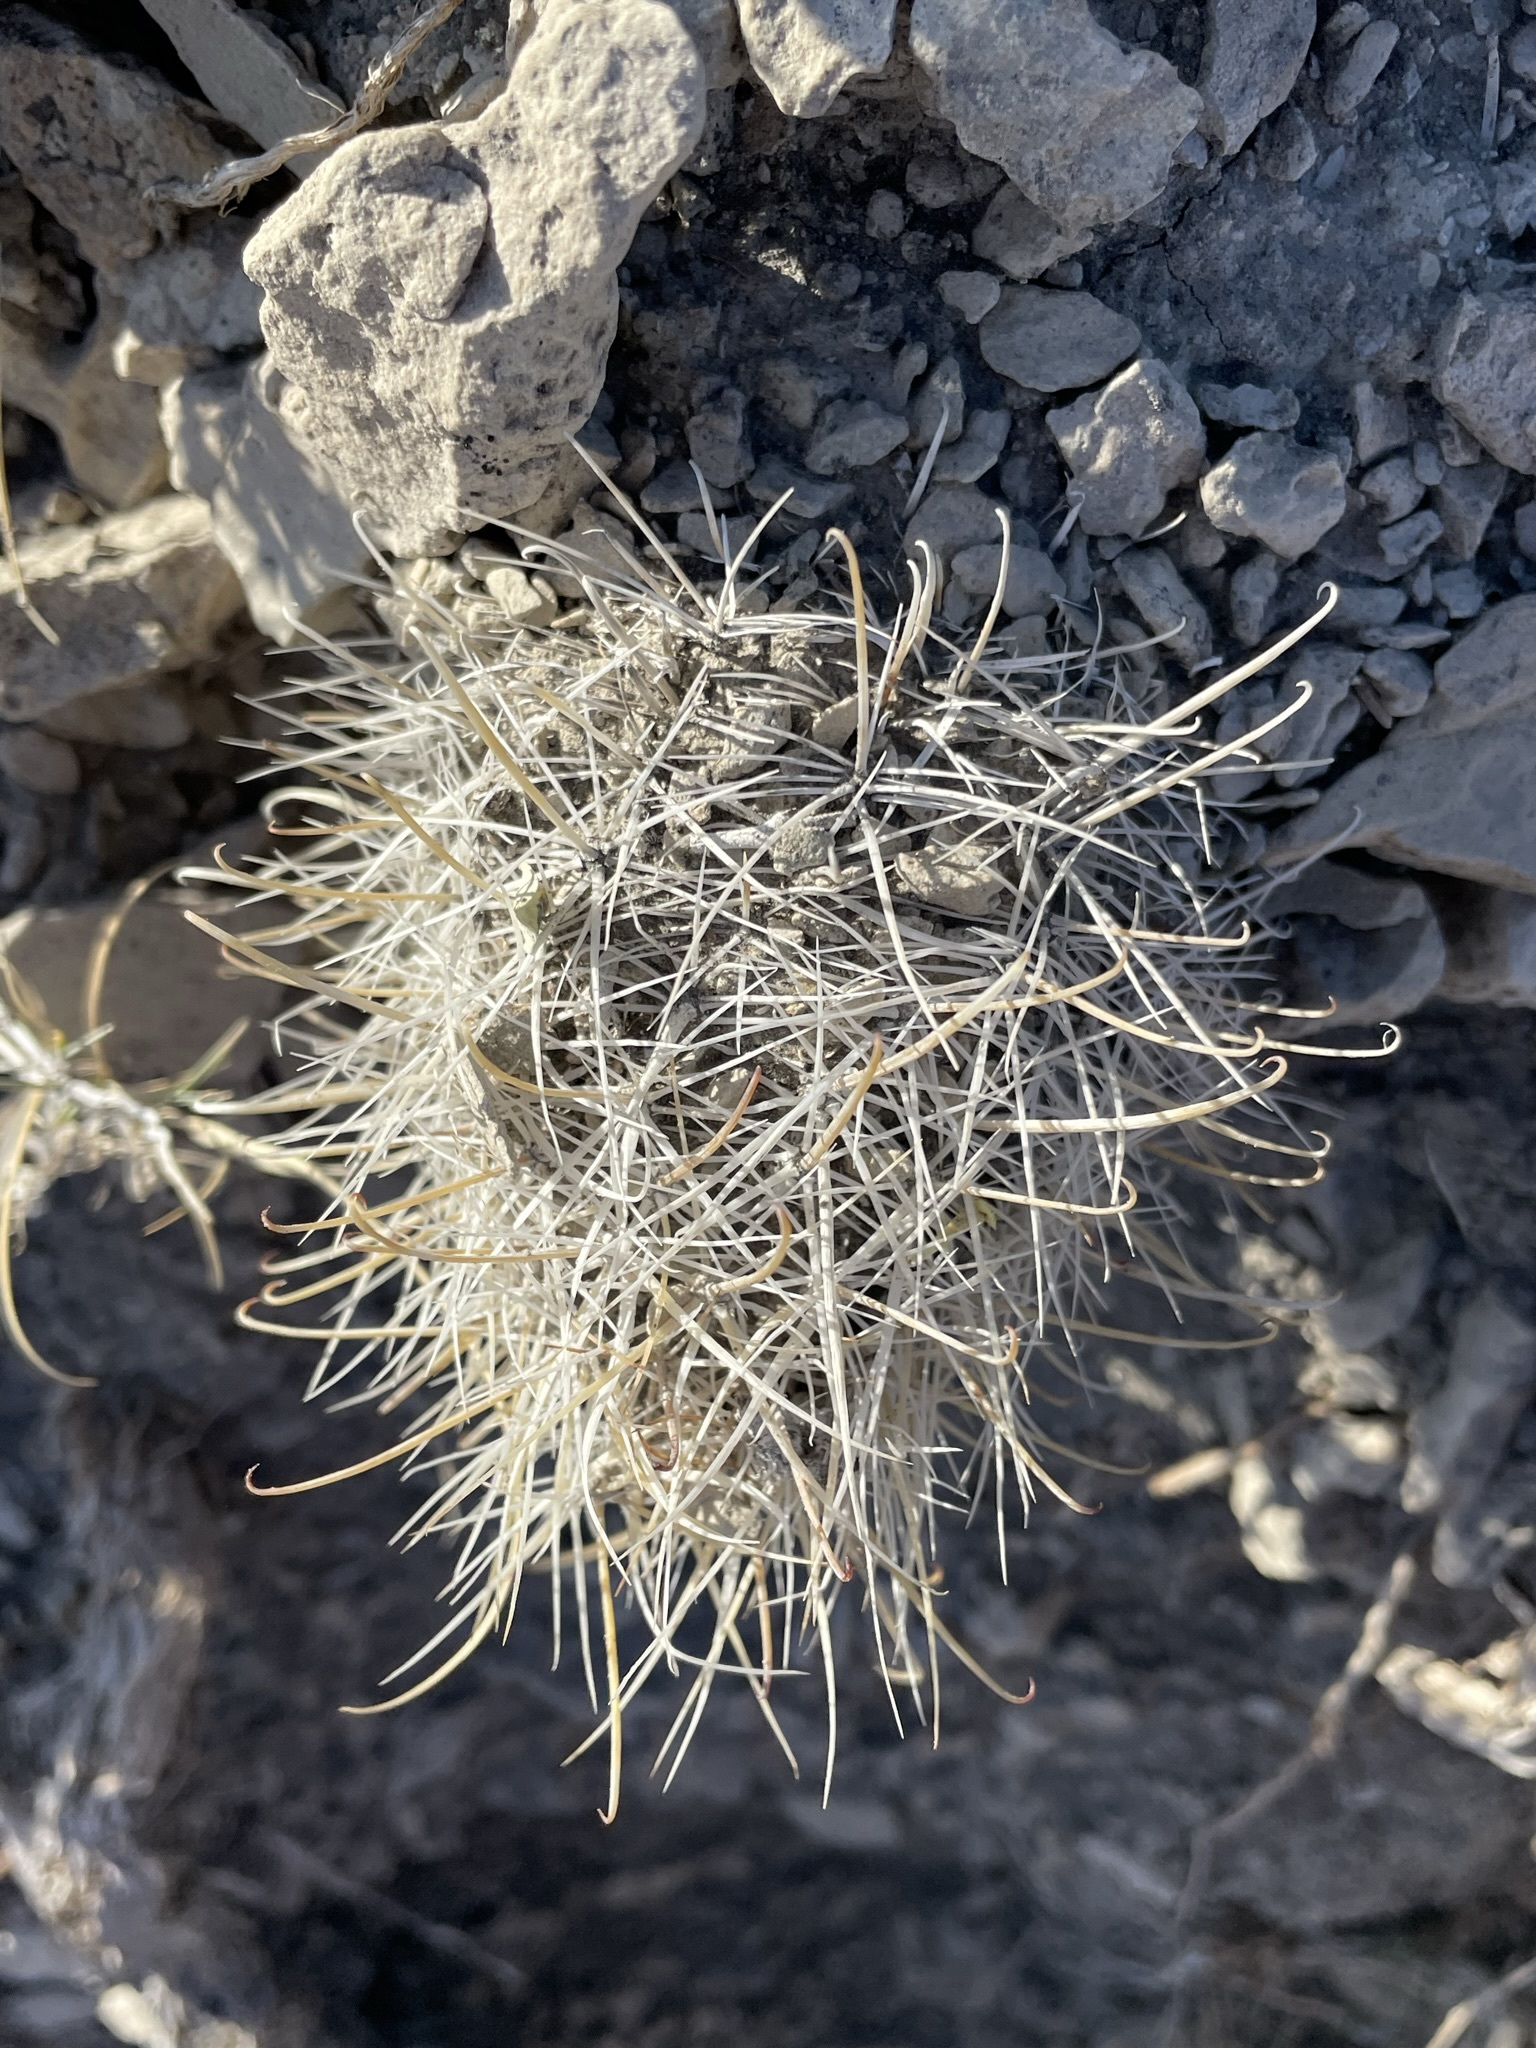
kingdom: Plantae
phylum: Tracheophyta
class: Magnoliopsida
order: Caryophyllales
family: Cactaceae
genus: Sclerocactus
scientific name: Sclerocactus parviflorus
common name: Small-flower fishhook cactus
